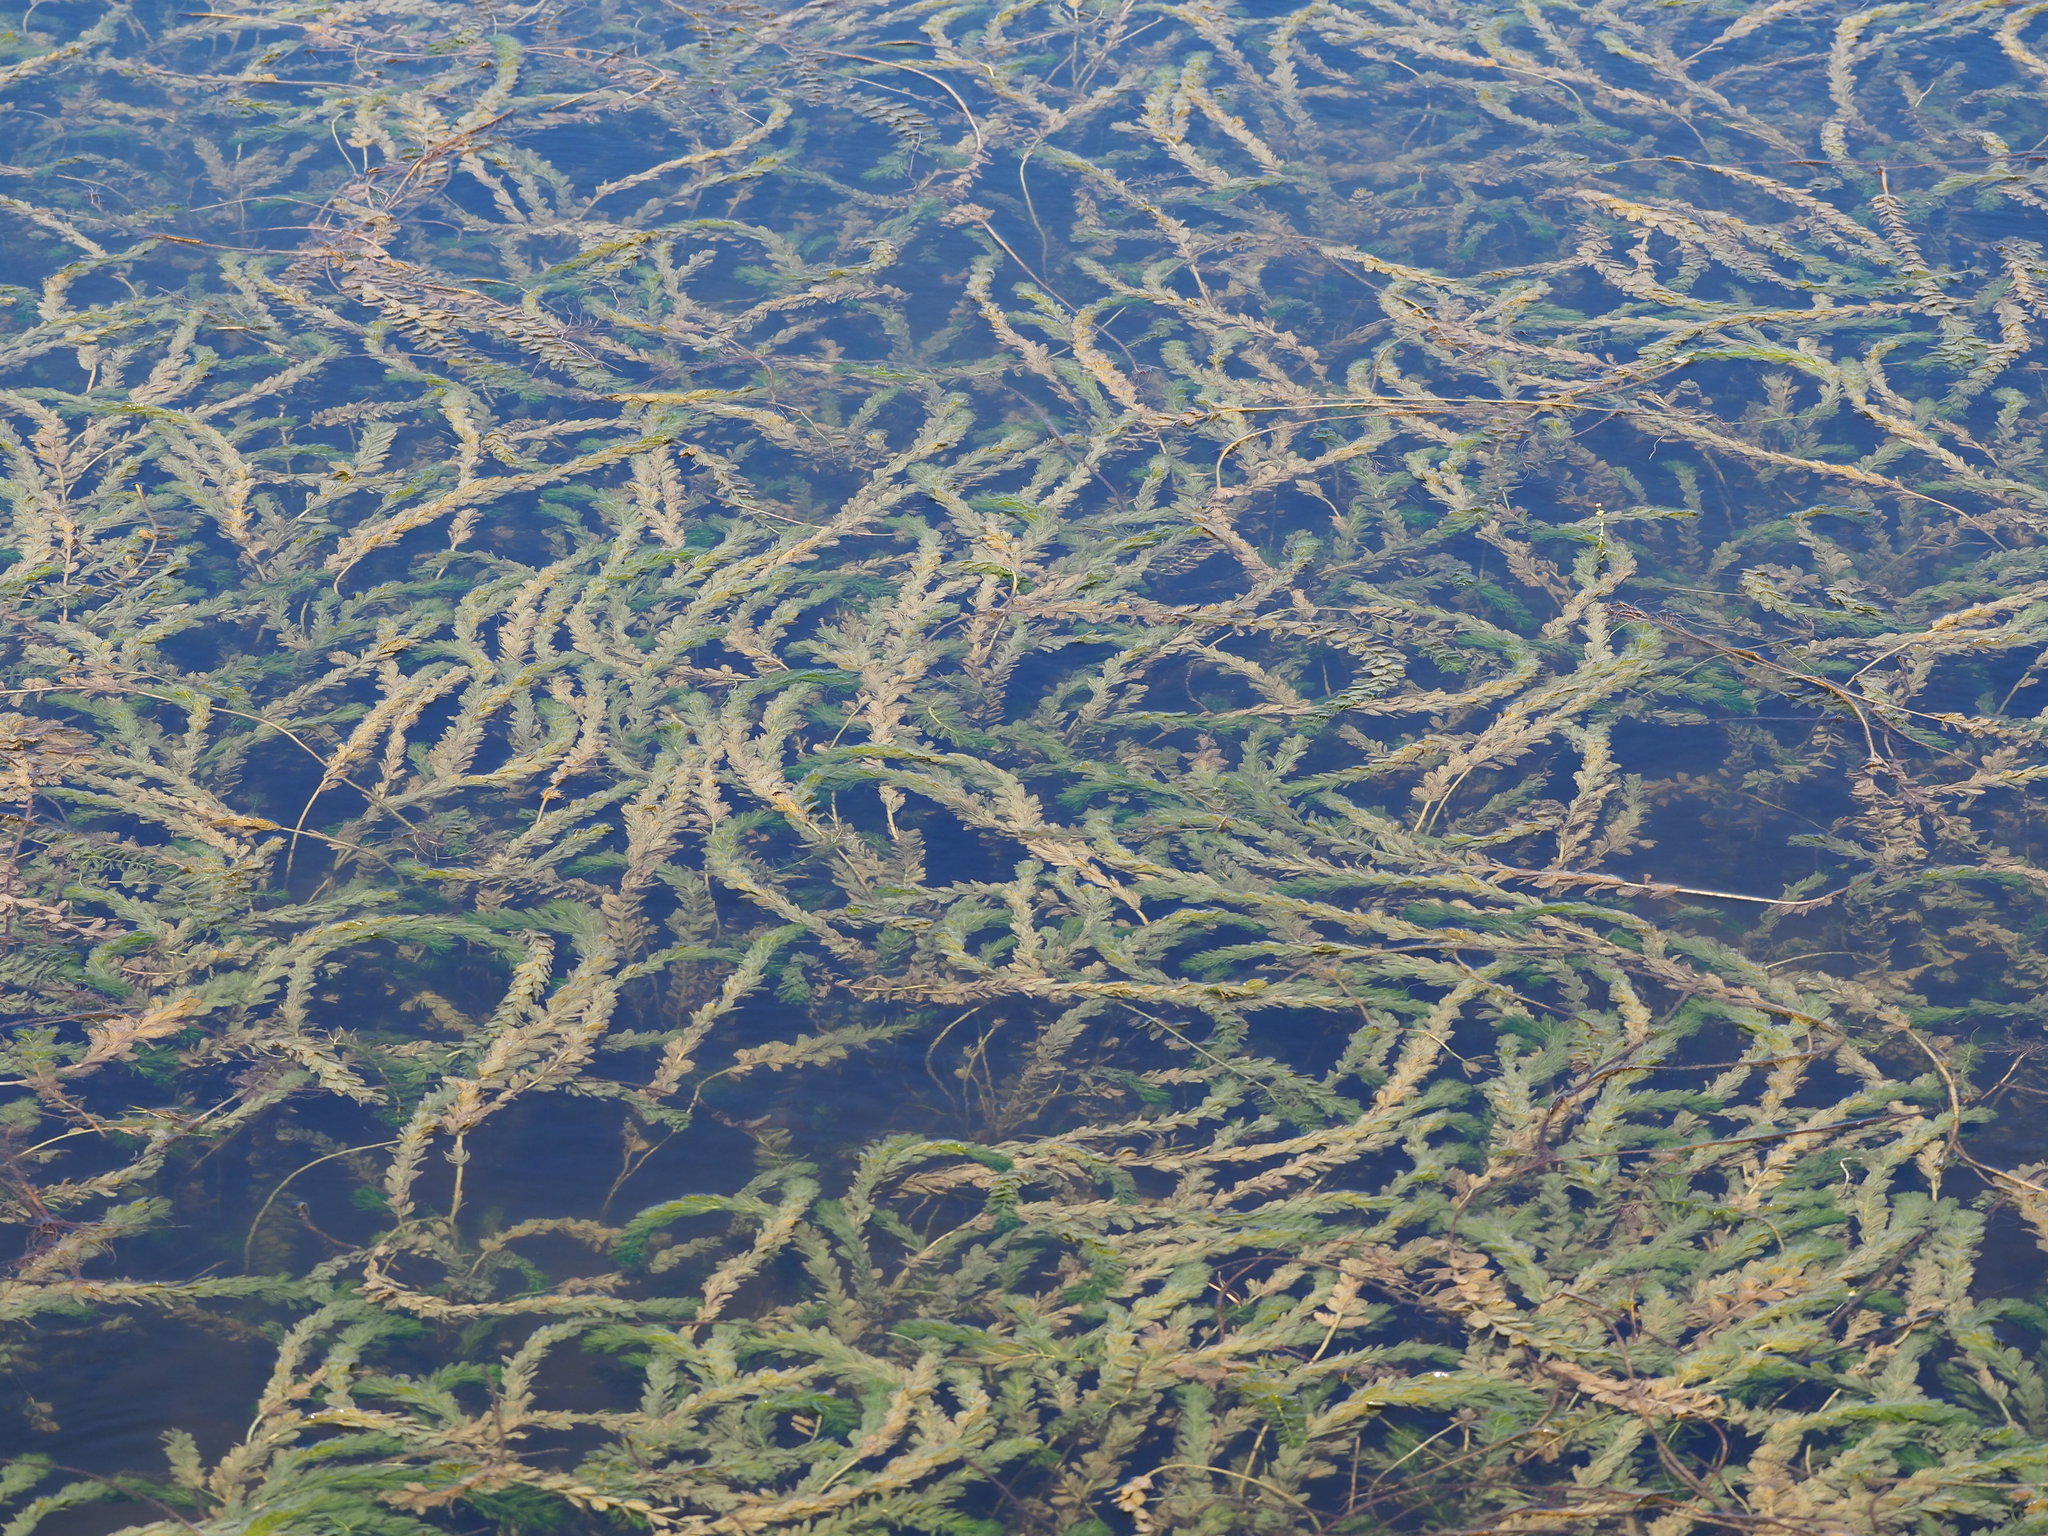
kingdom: Plantae
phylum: Tracheophyta
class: Magnoliopsida
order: Saxifragales
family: Haloragaceae
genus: Myriophyllum
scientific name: Myriophyllum spicatum
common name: Spiked water-milfoil
